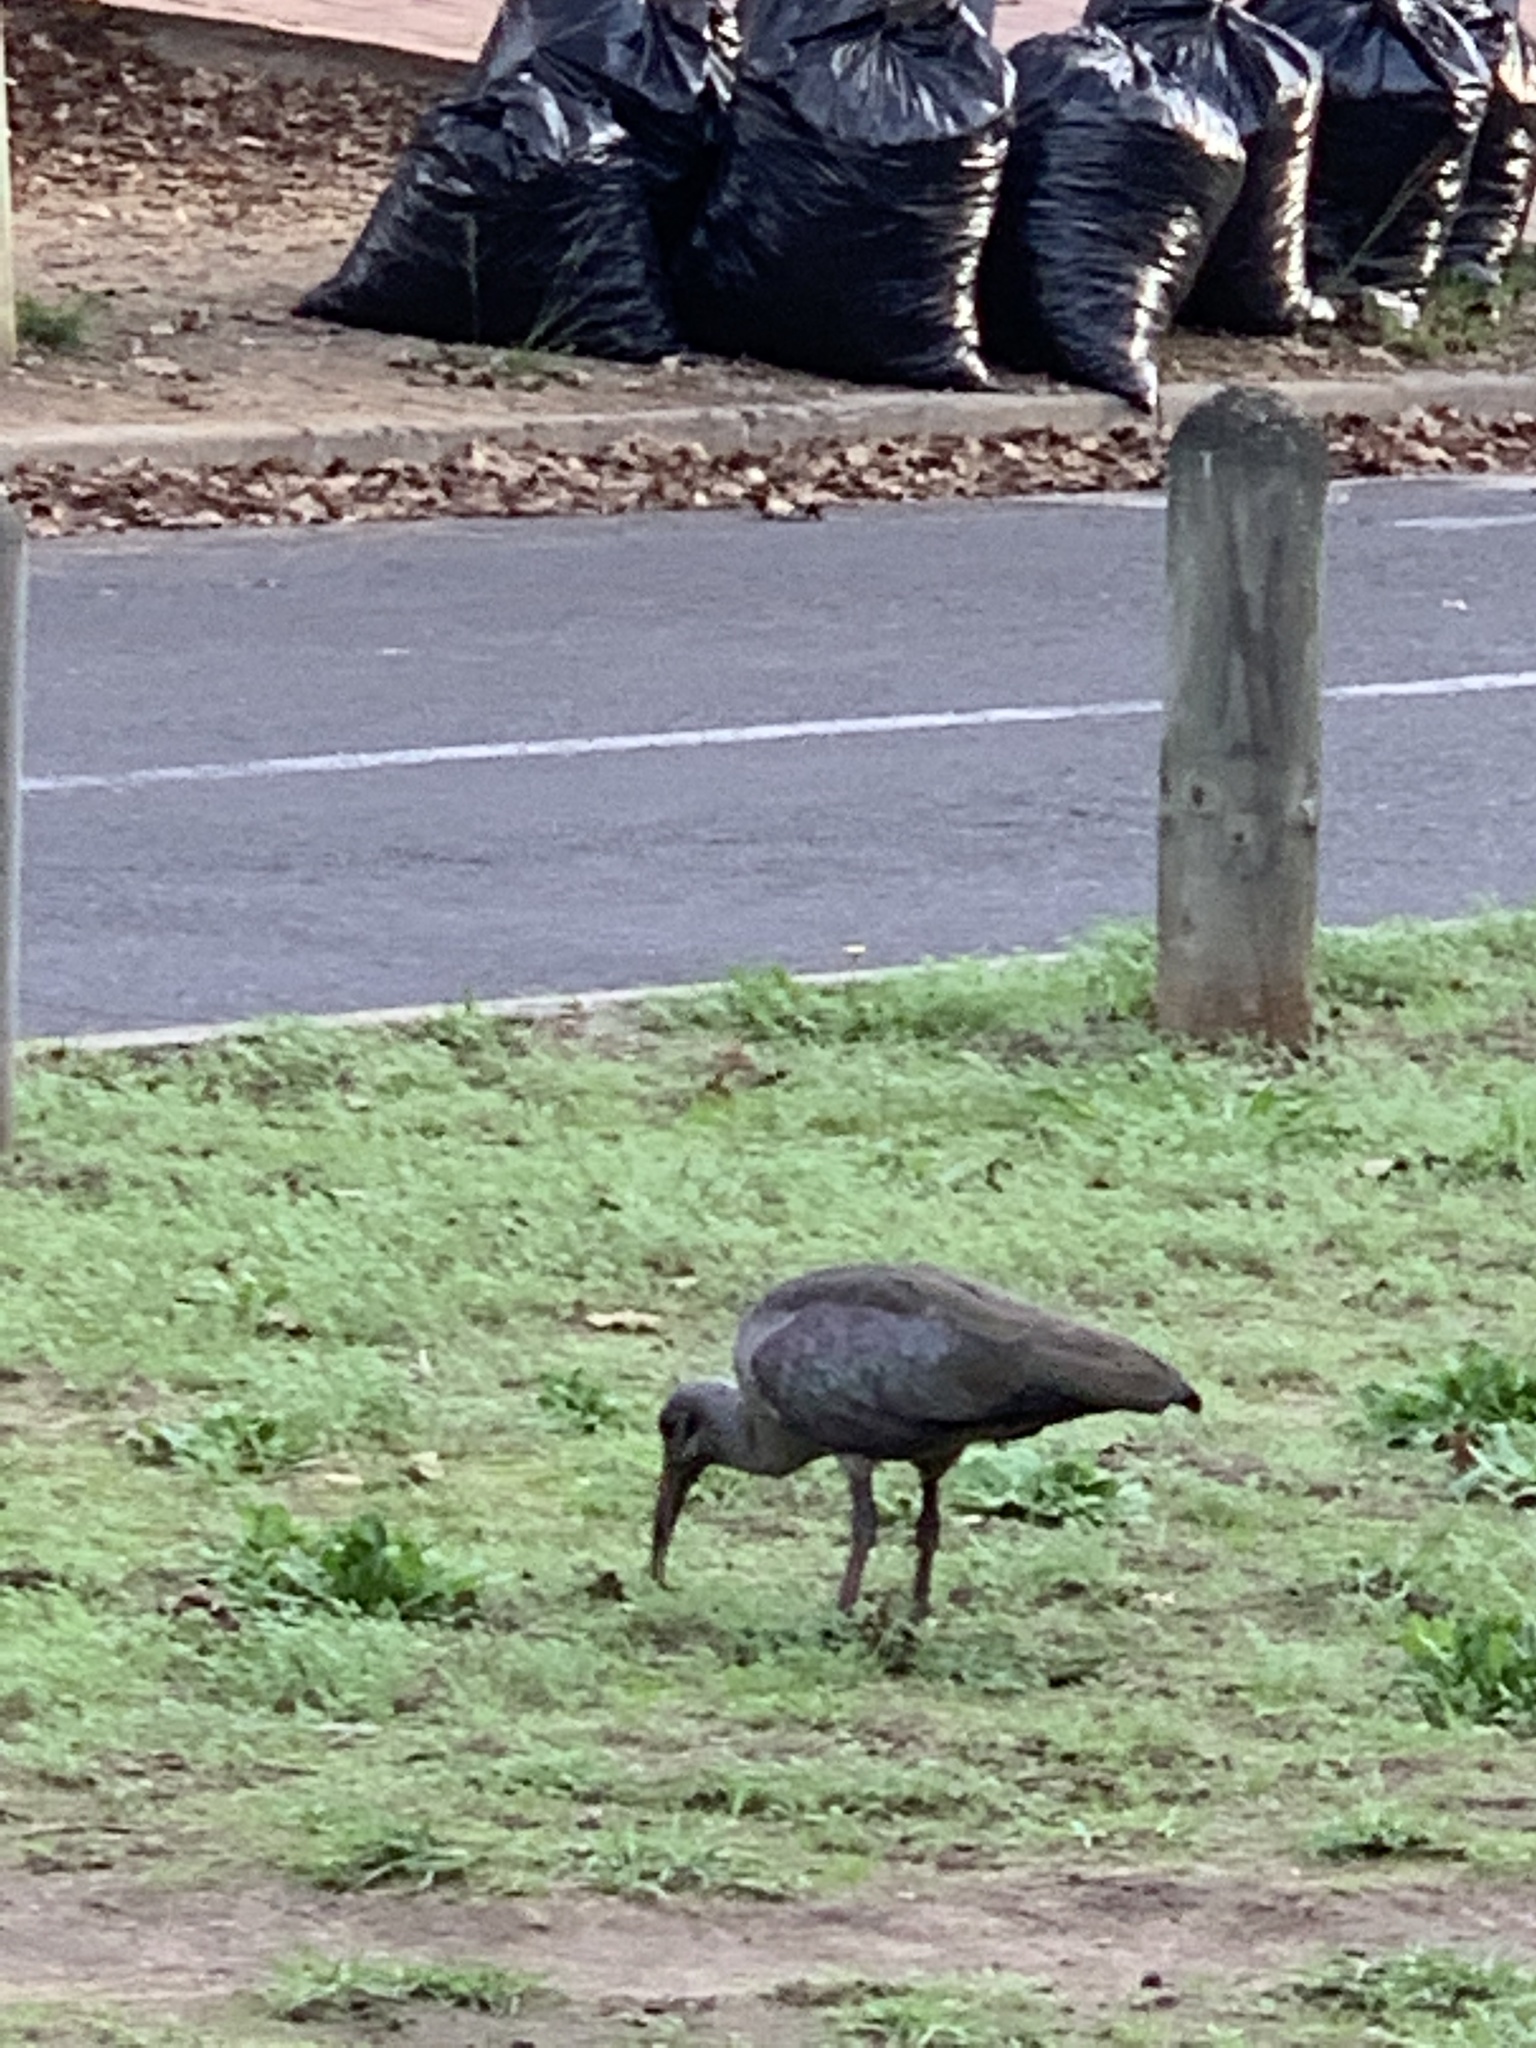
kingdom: Animalia
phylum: Chordata
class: Aves
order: Pelecaniformes
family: Threskiornithidae
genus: Bostrychia
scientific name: Bostrychia hagedash
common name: Hadada ibis
